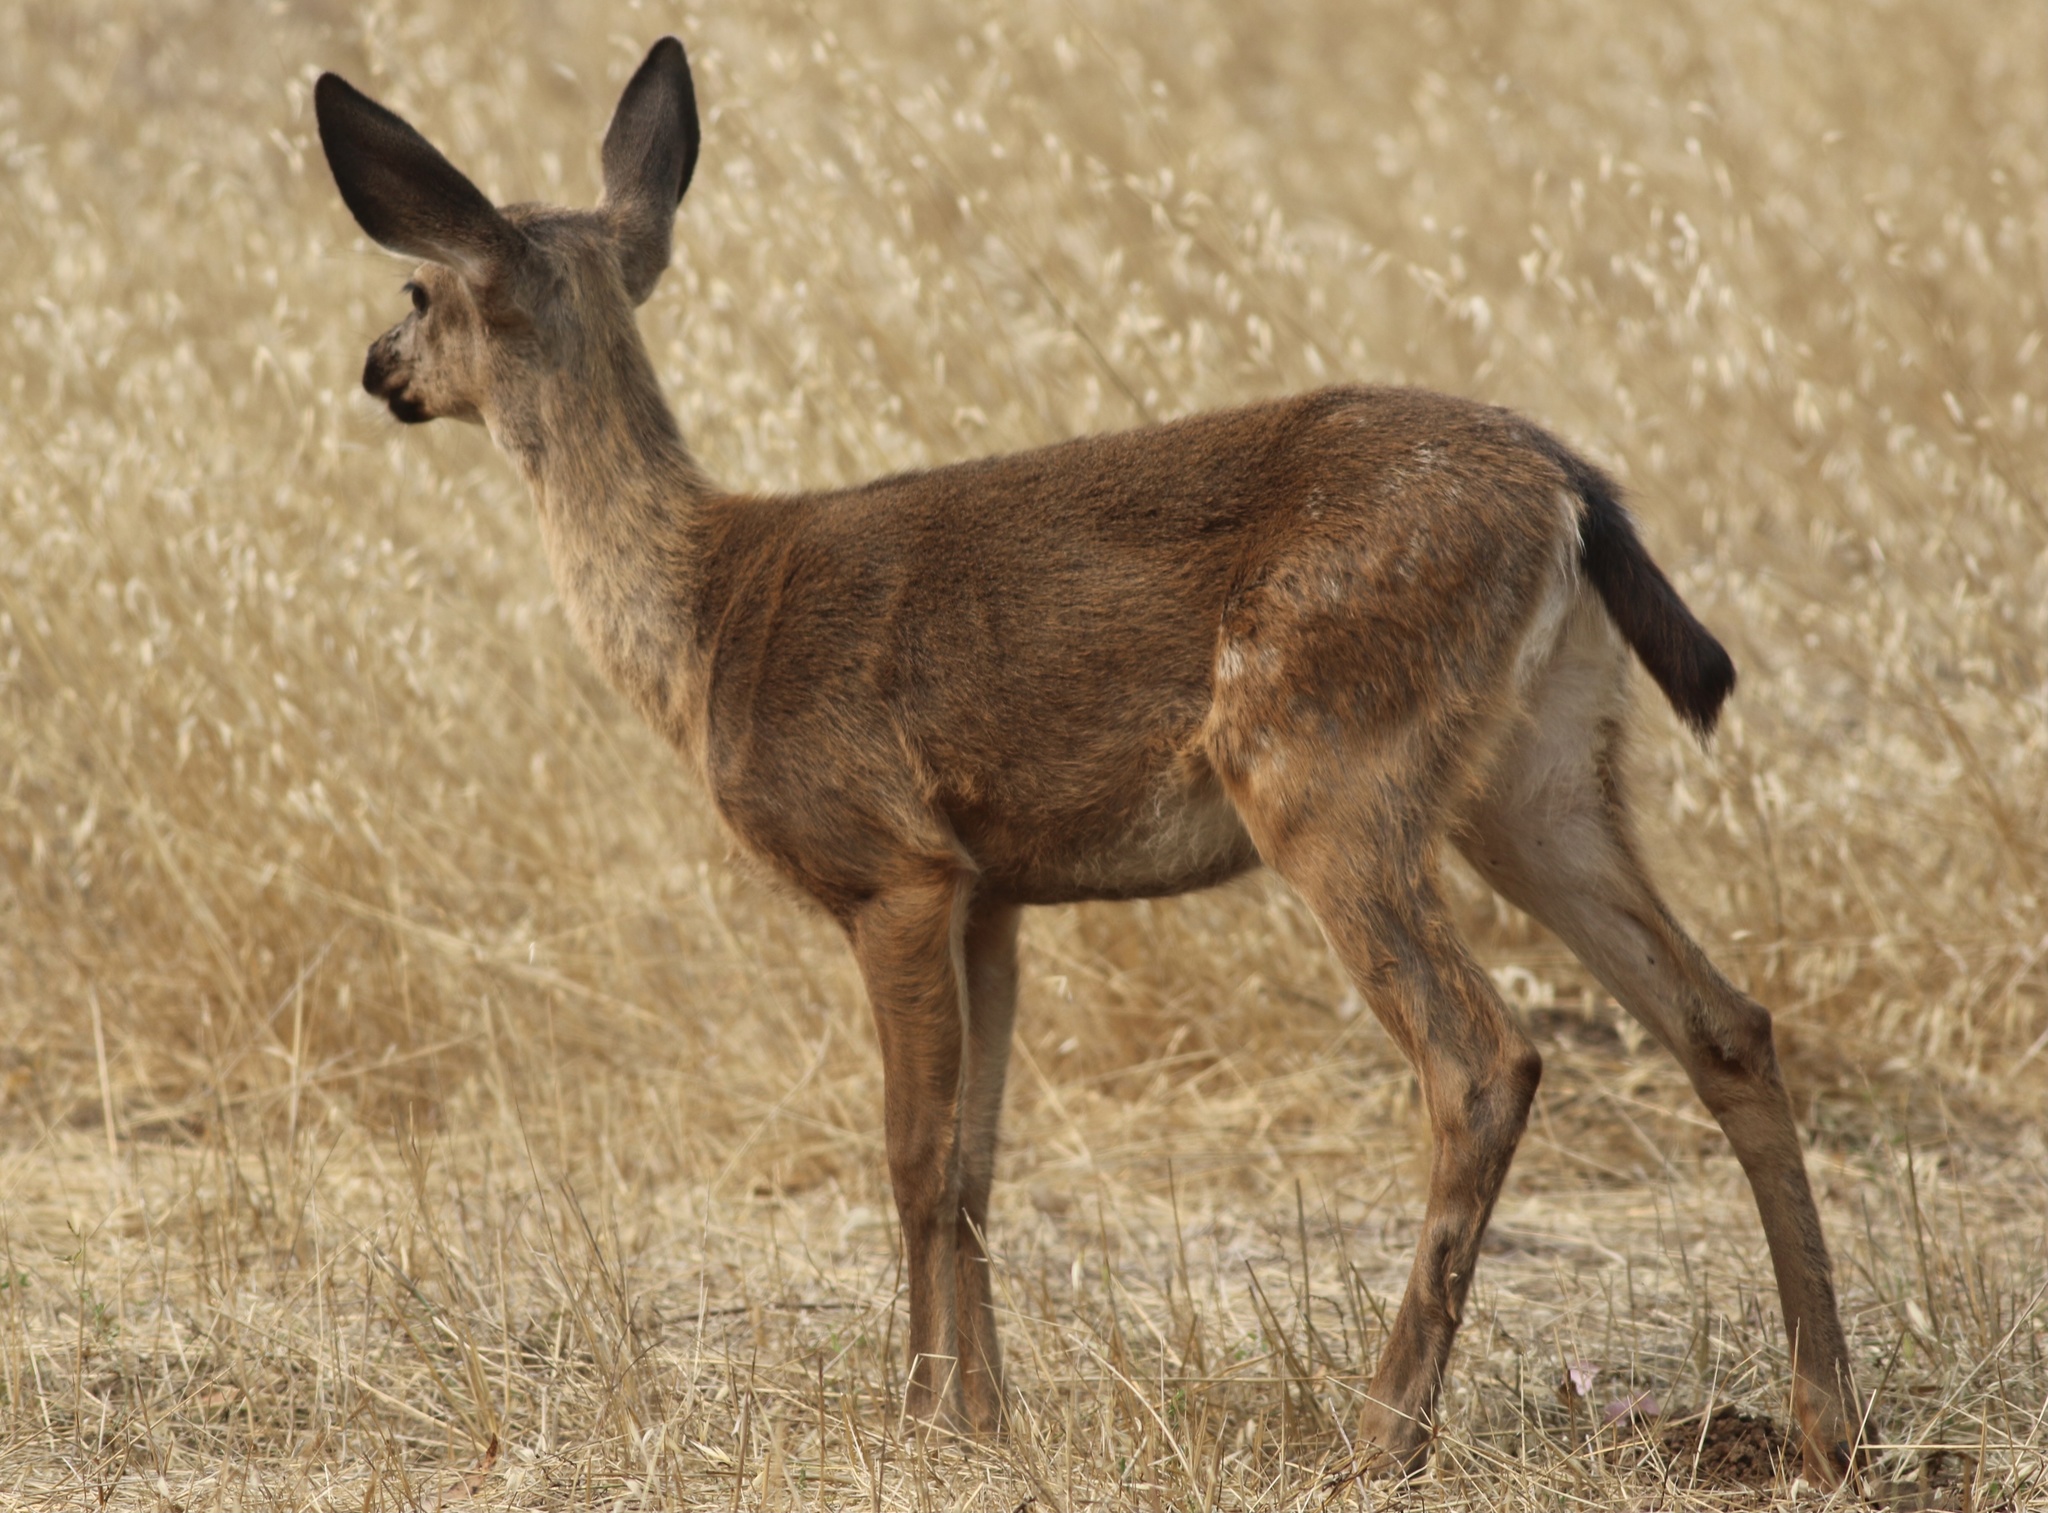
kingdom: Animalia
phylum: Chordata
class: Mammalia
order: Artiodactyla
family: Cervidae
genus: Odocoileus
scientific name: Odocoileus hemionus
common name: Mule deer
